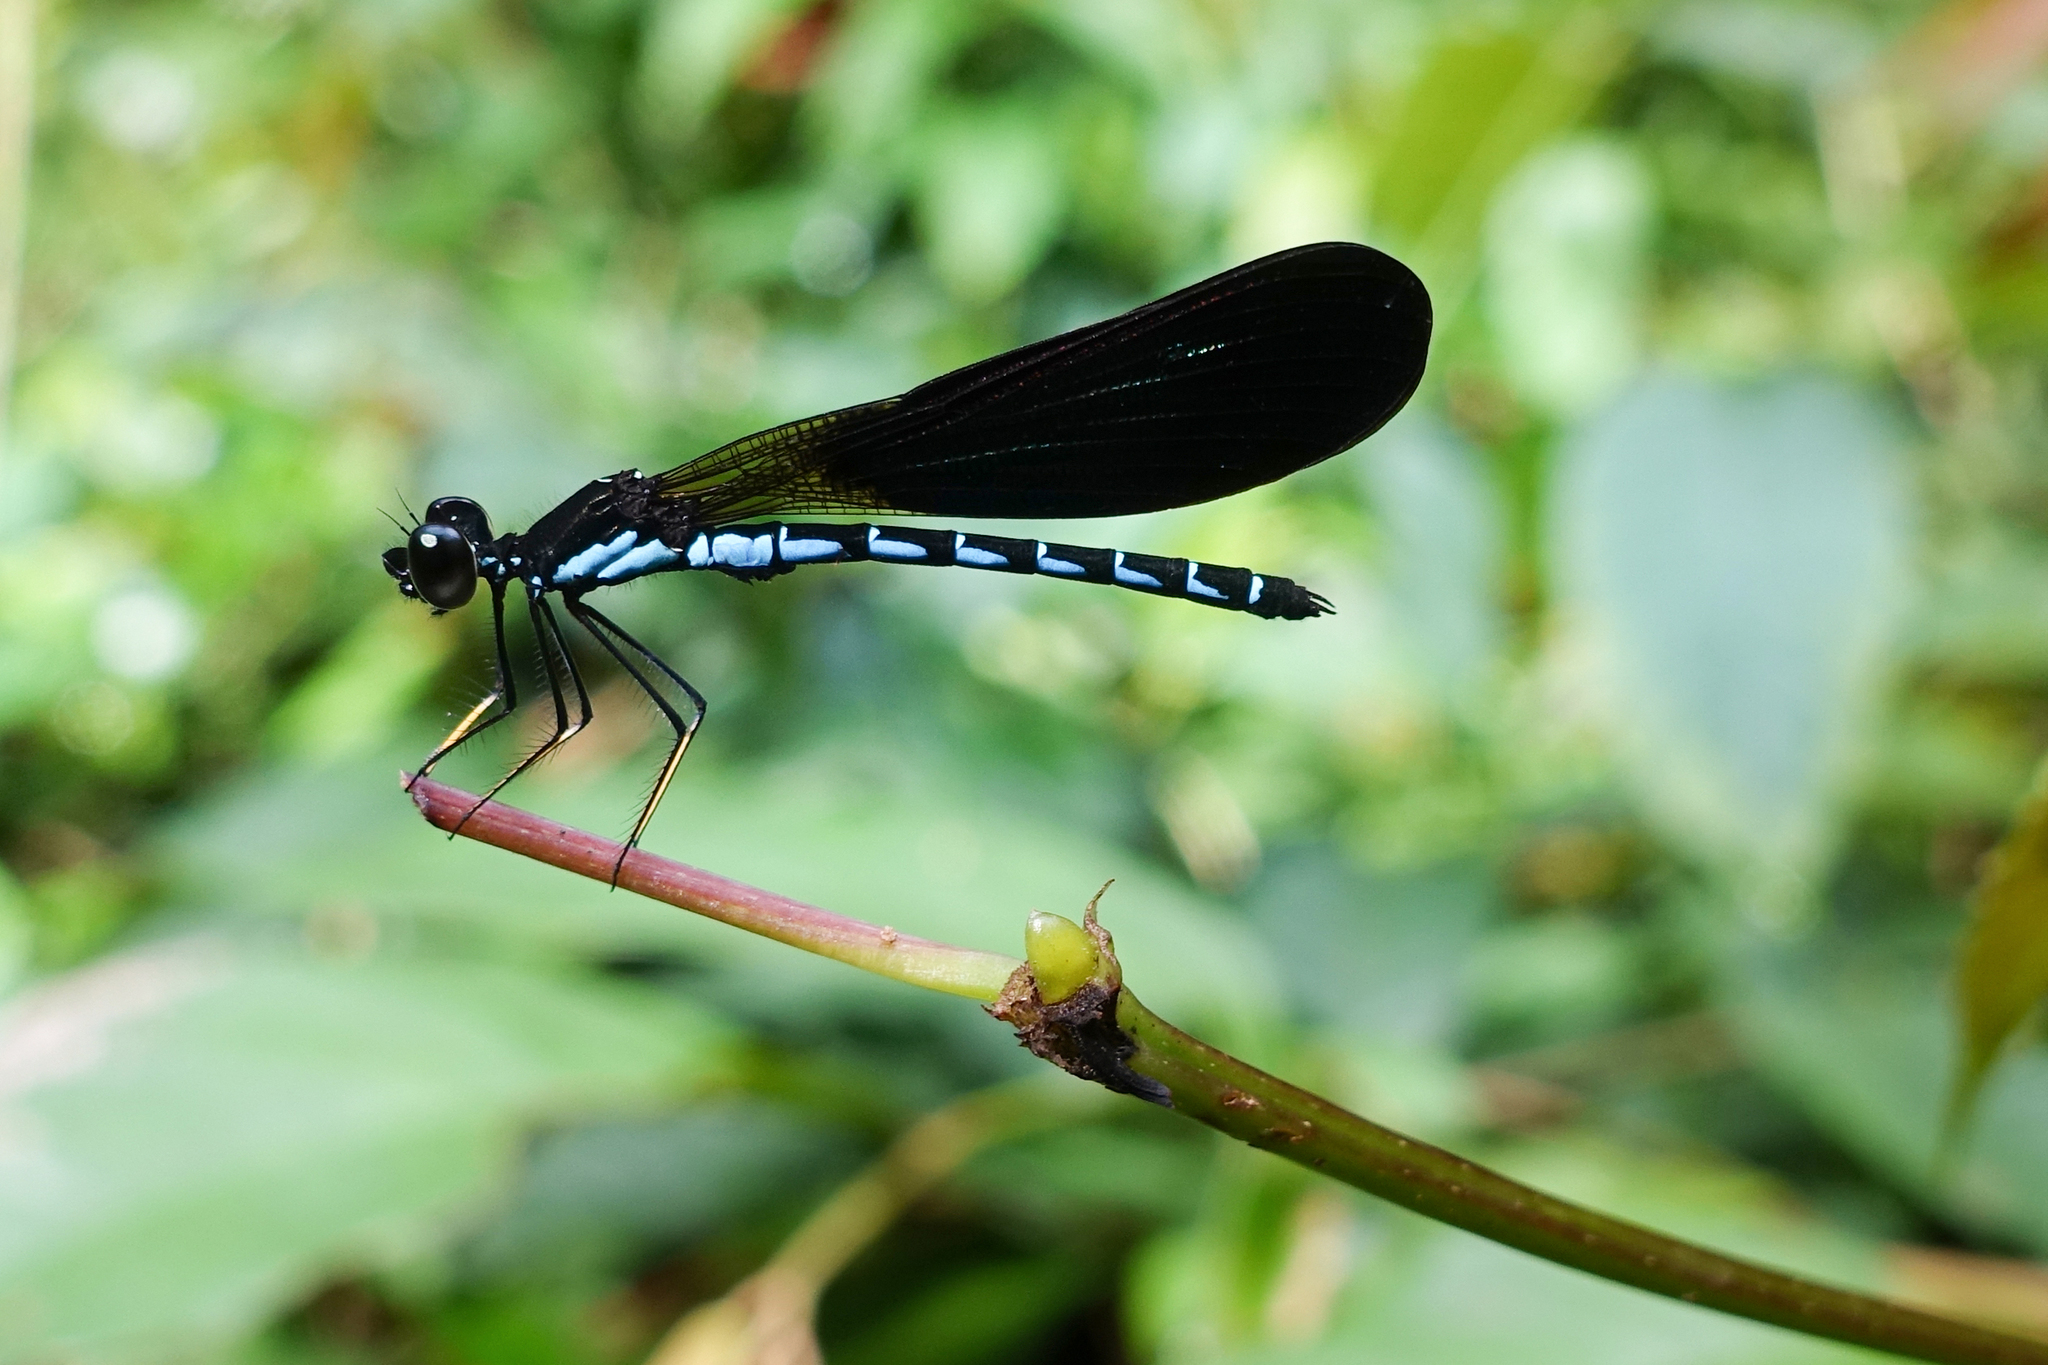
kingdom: Animalia
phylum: Arthropoda
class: Insecta
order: Odonata
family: Chlorocyphidae
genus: Rhinocypha
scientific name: Rhinocypha tincta
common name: Papuan jewel
